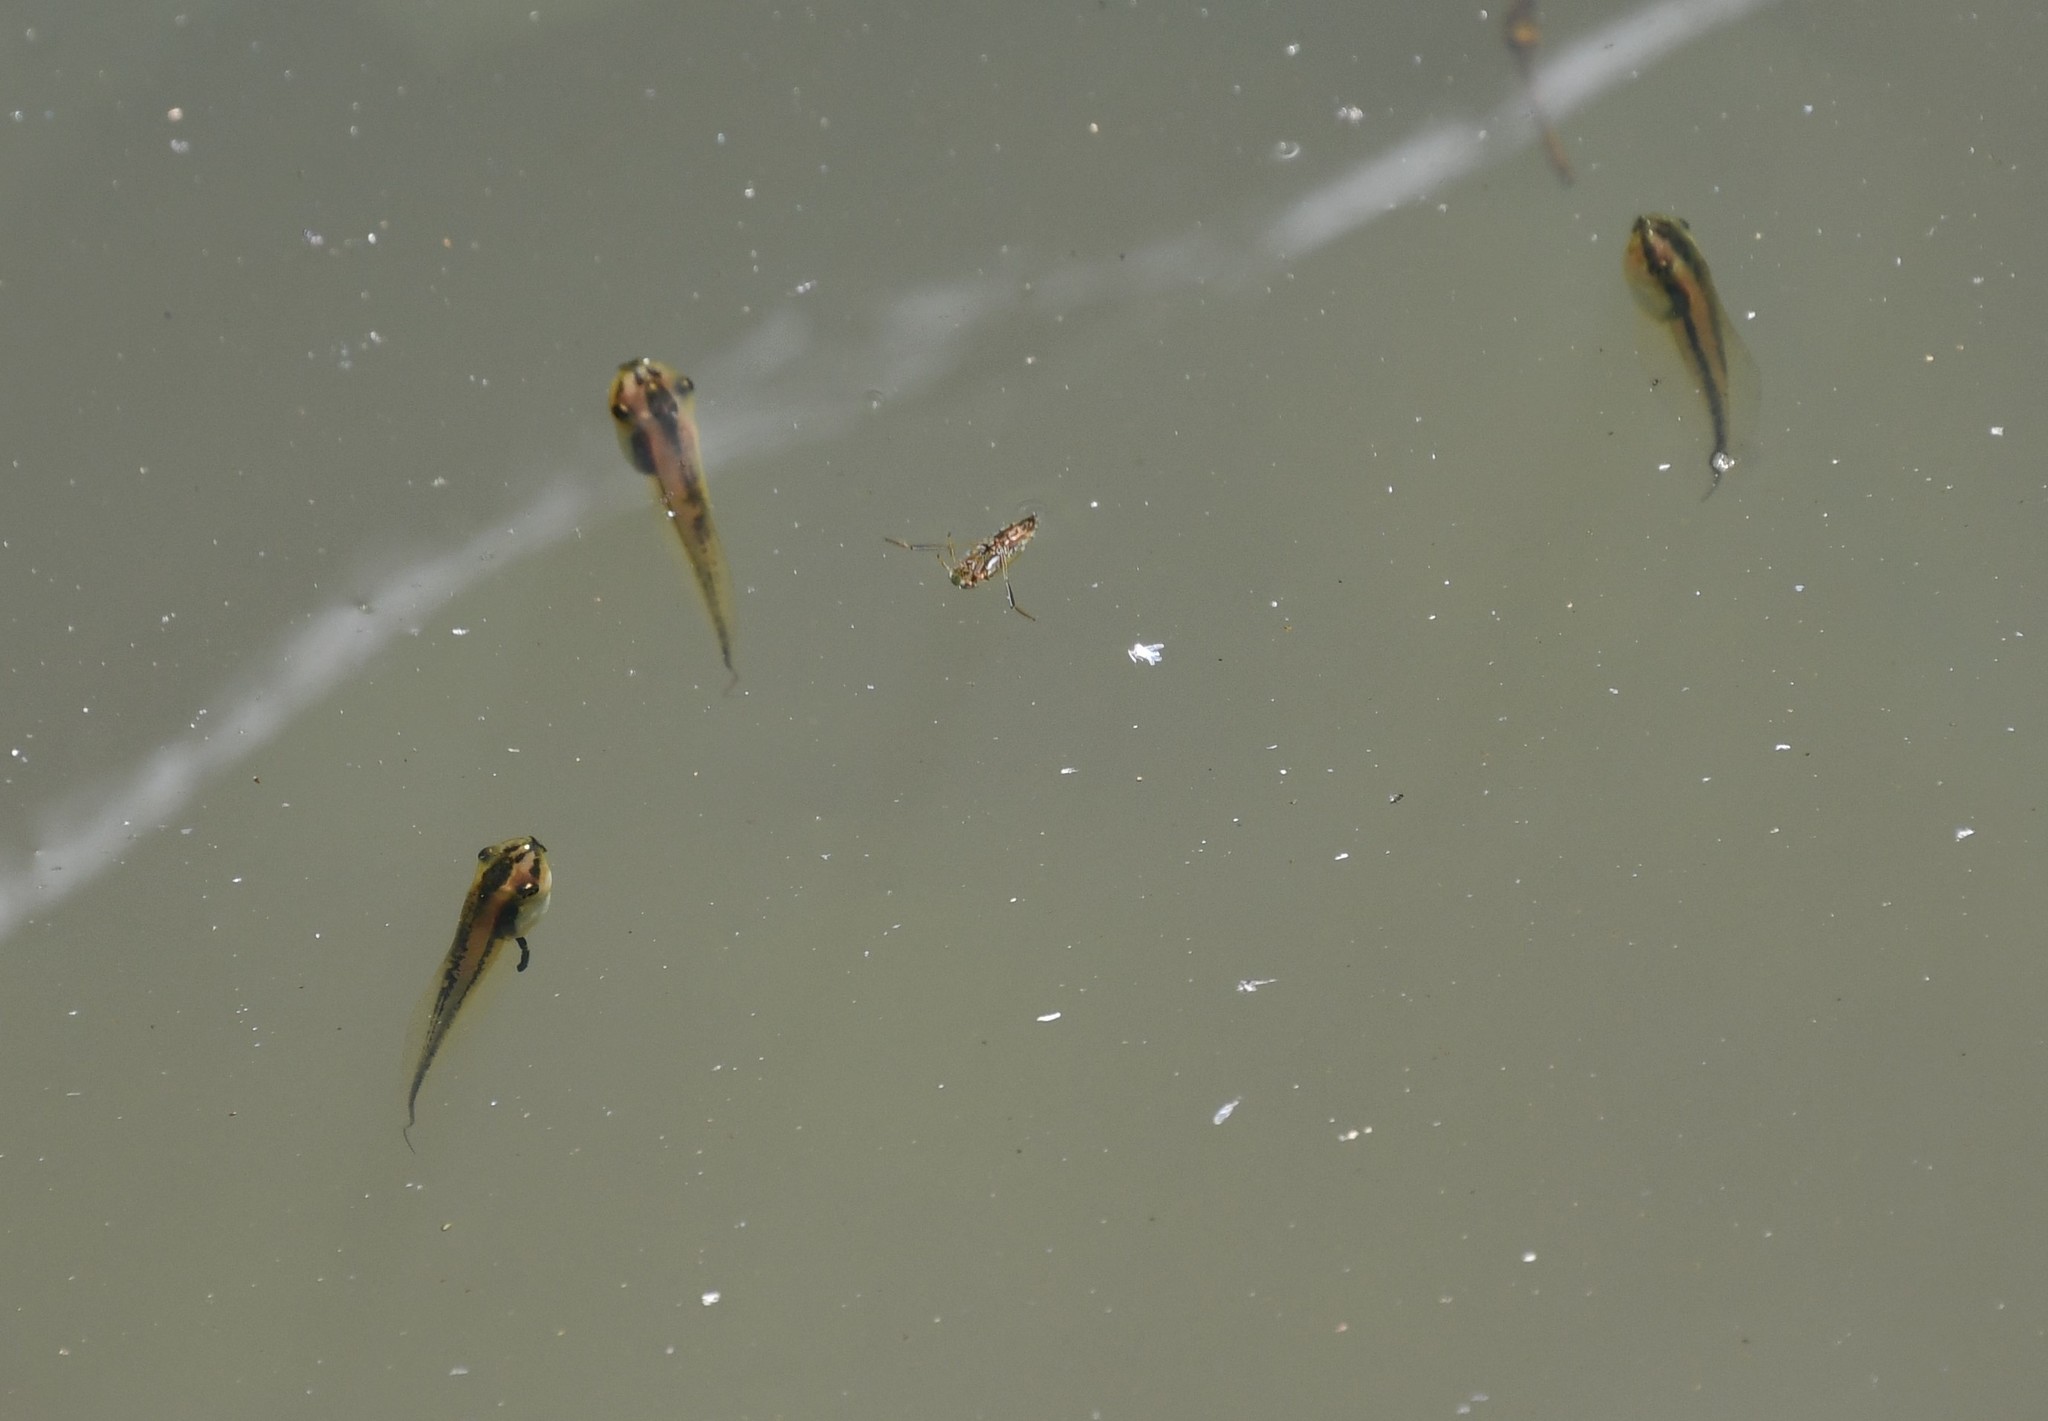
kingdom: Animalia
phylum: Chordata
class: Amphibia
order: Anura
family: Pelodryadidae
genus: Litoria
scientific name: Litoria peronii
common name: Emerald spotted treefrog
